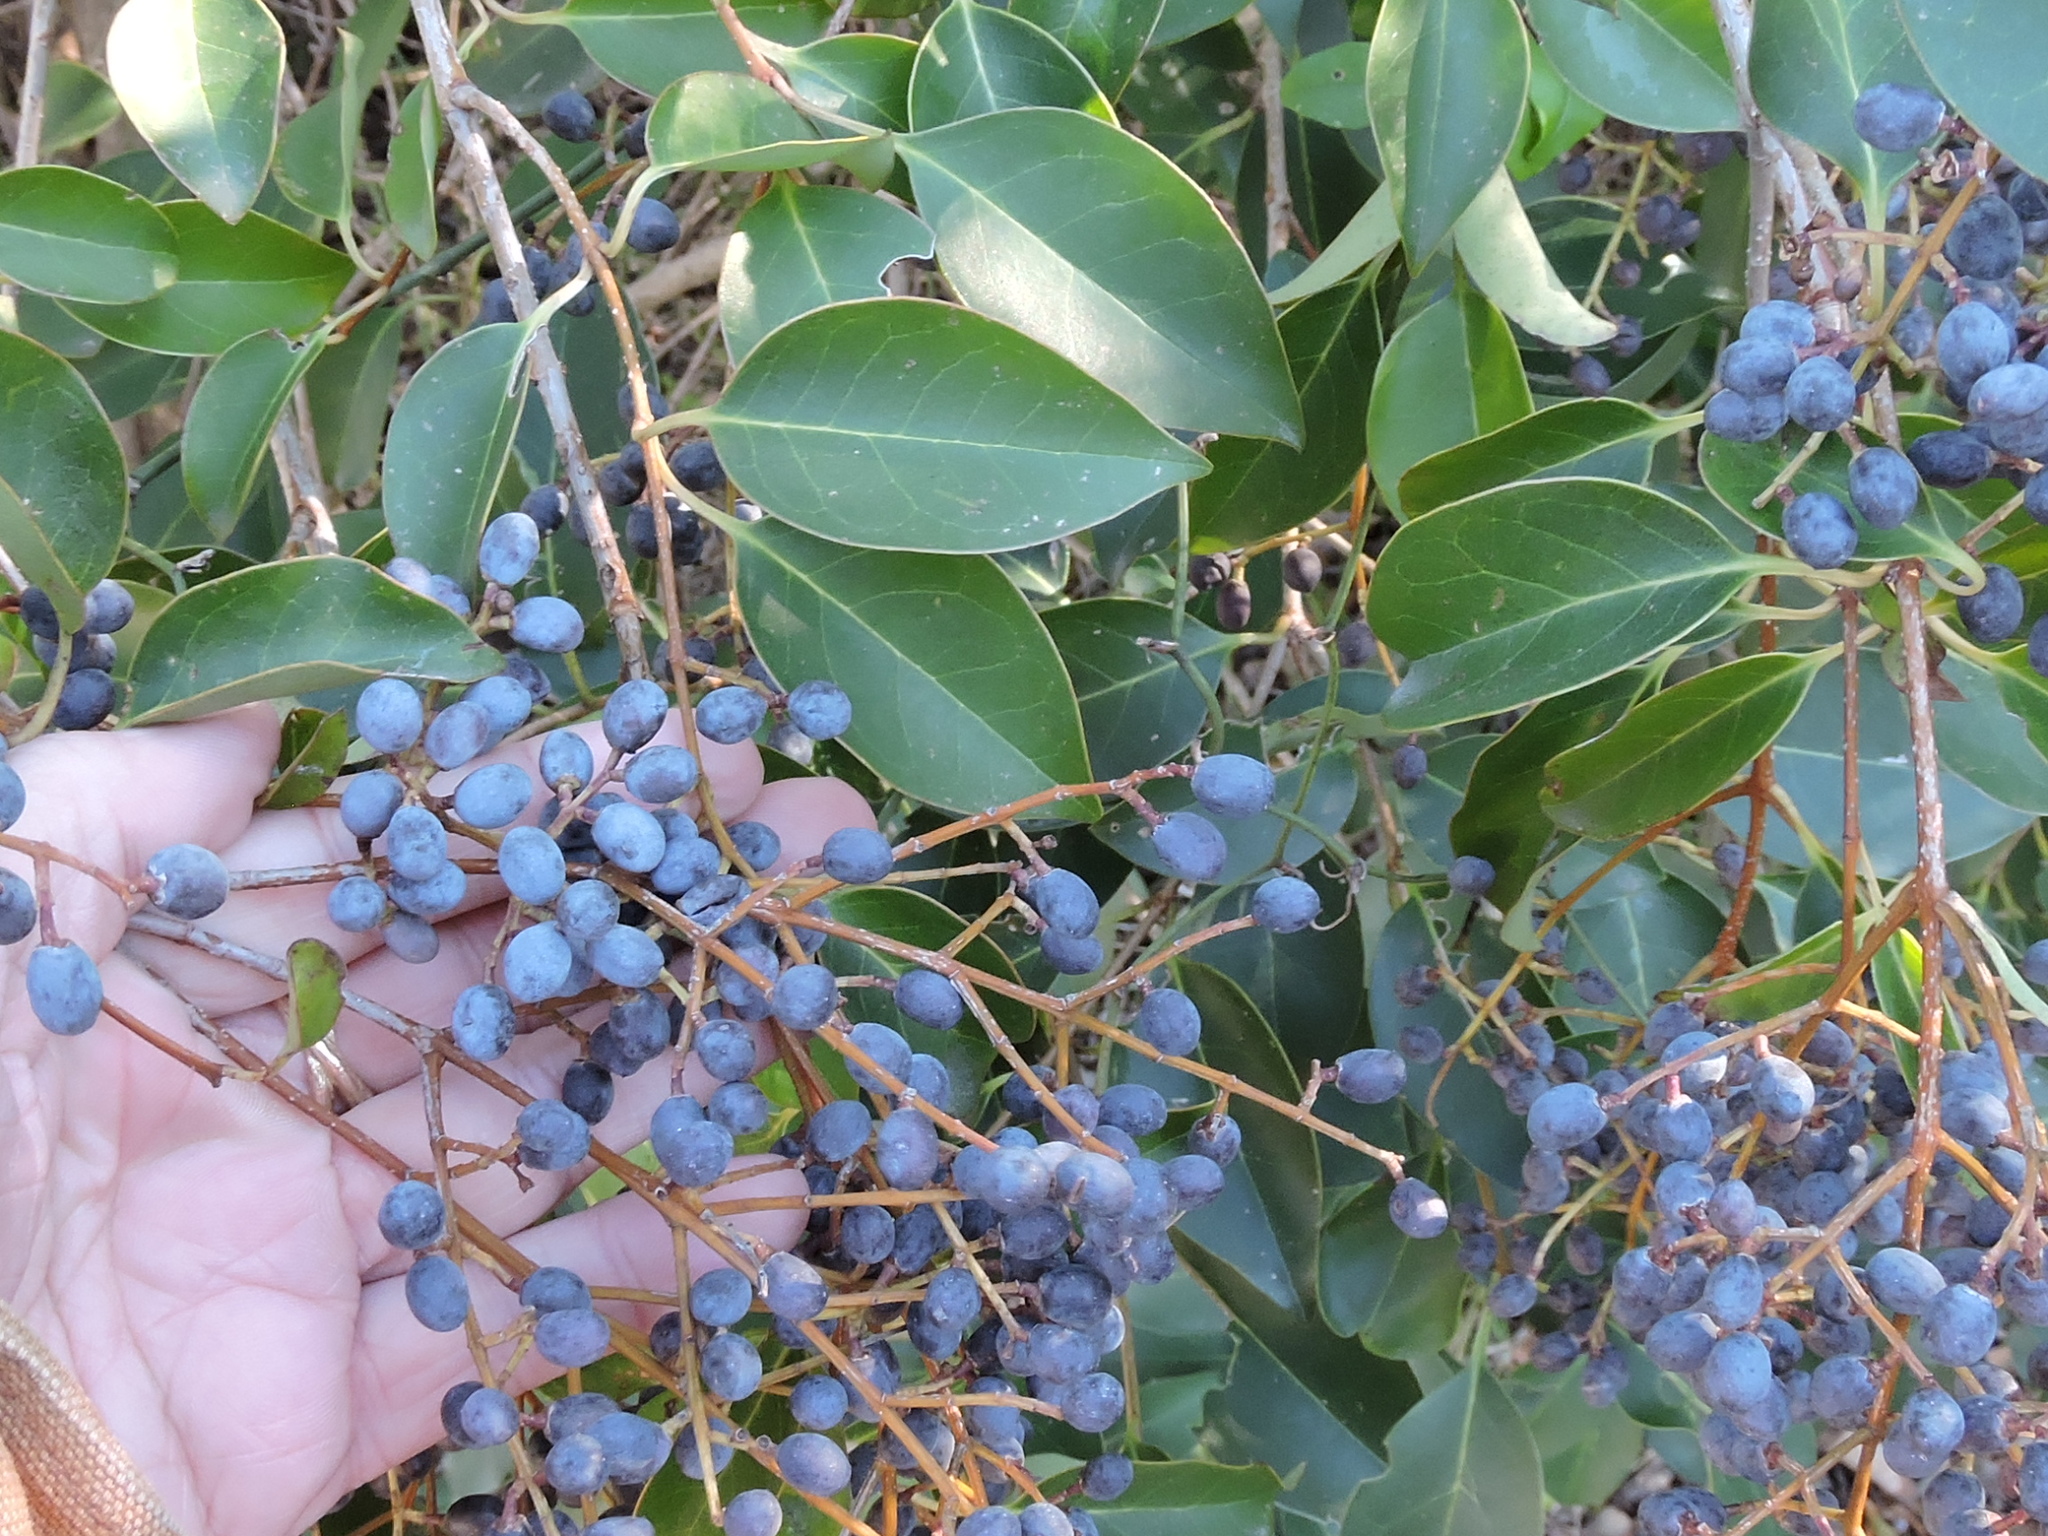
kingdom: Plantae
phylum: Tracheophyta
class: Magnoliopsida
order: Lamiales
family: Oleaceae
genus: Ligustrum
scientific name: Ligustrum lucidum
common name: Glossy privet
